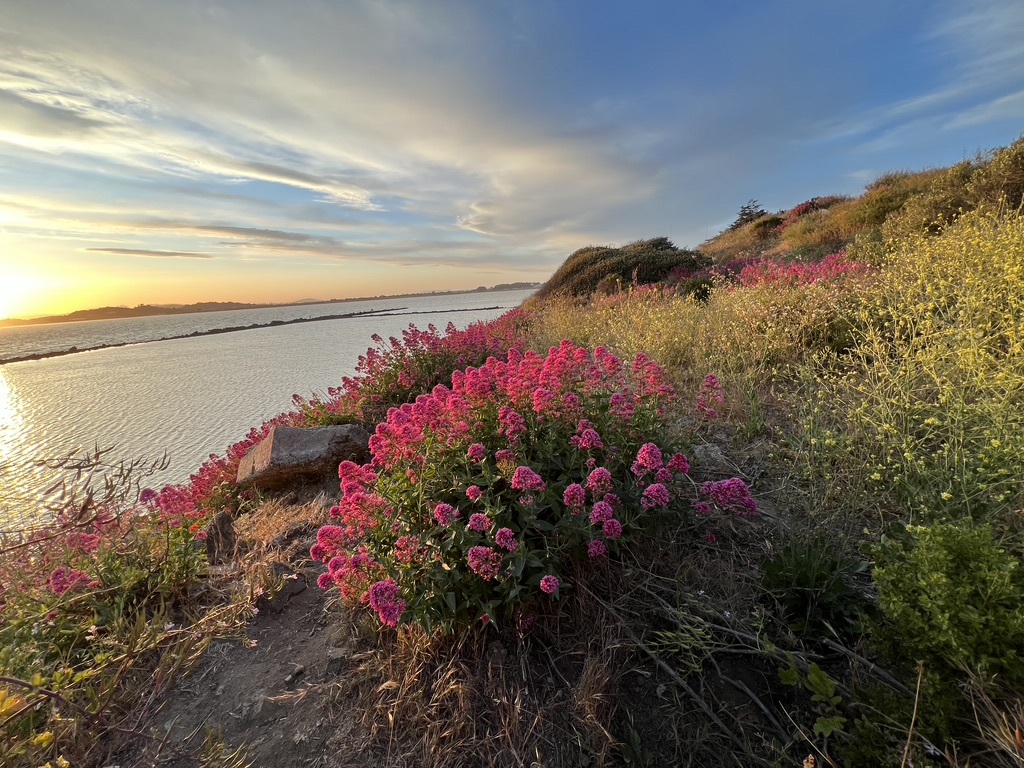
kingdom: Plantae
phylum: Tracheophyta
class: Magnoliopsida
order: Dipsacales
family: Caprifoliaceae
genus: Centranthus
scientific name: Centranthus ruber
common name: Red valerian
